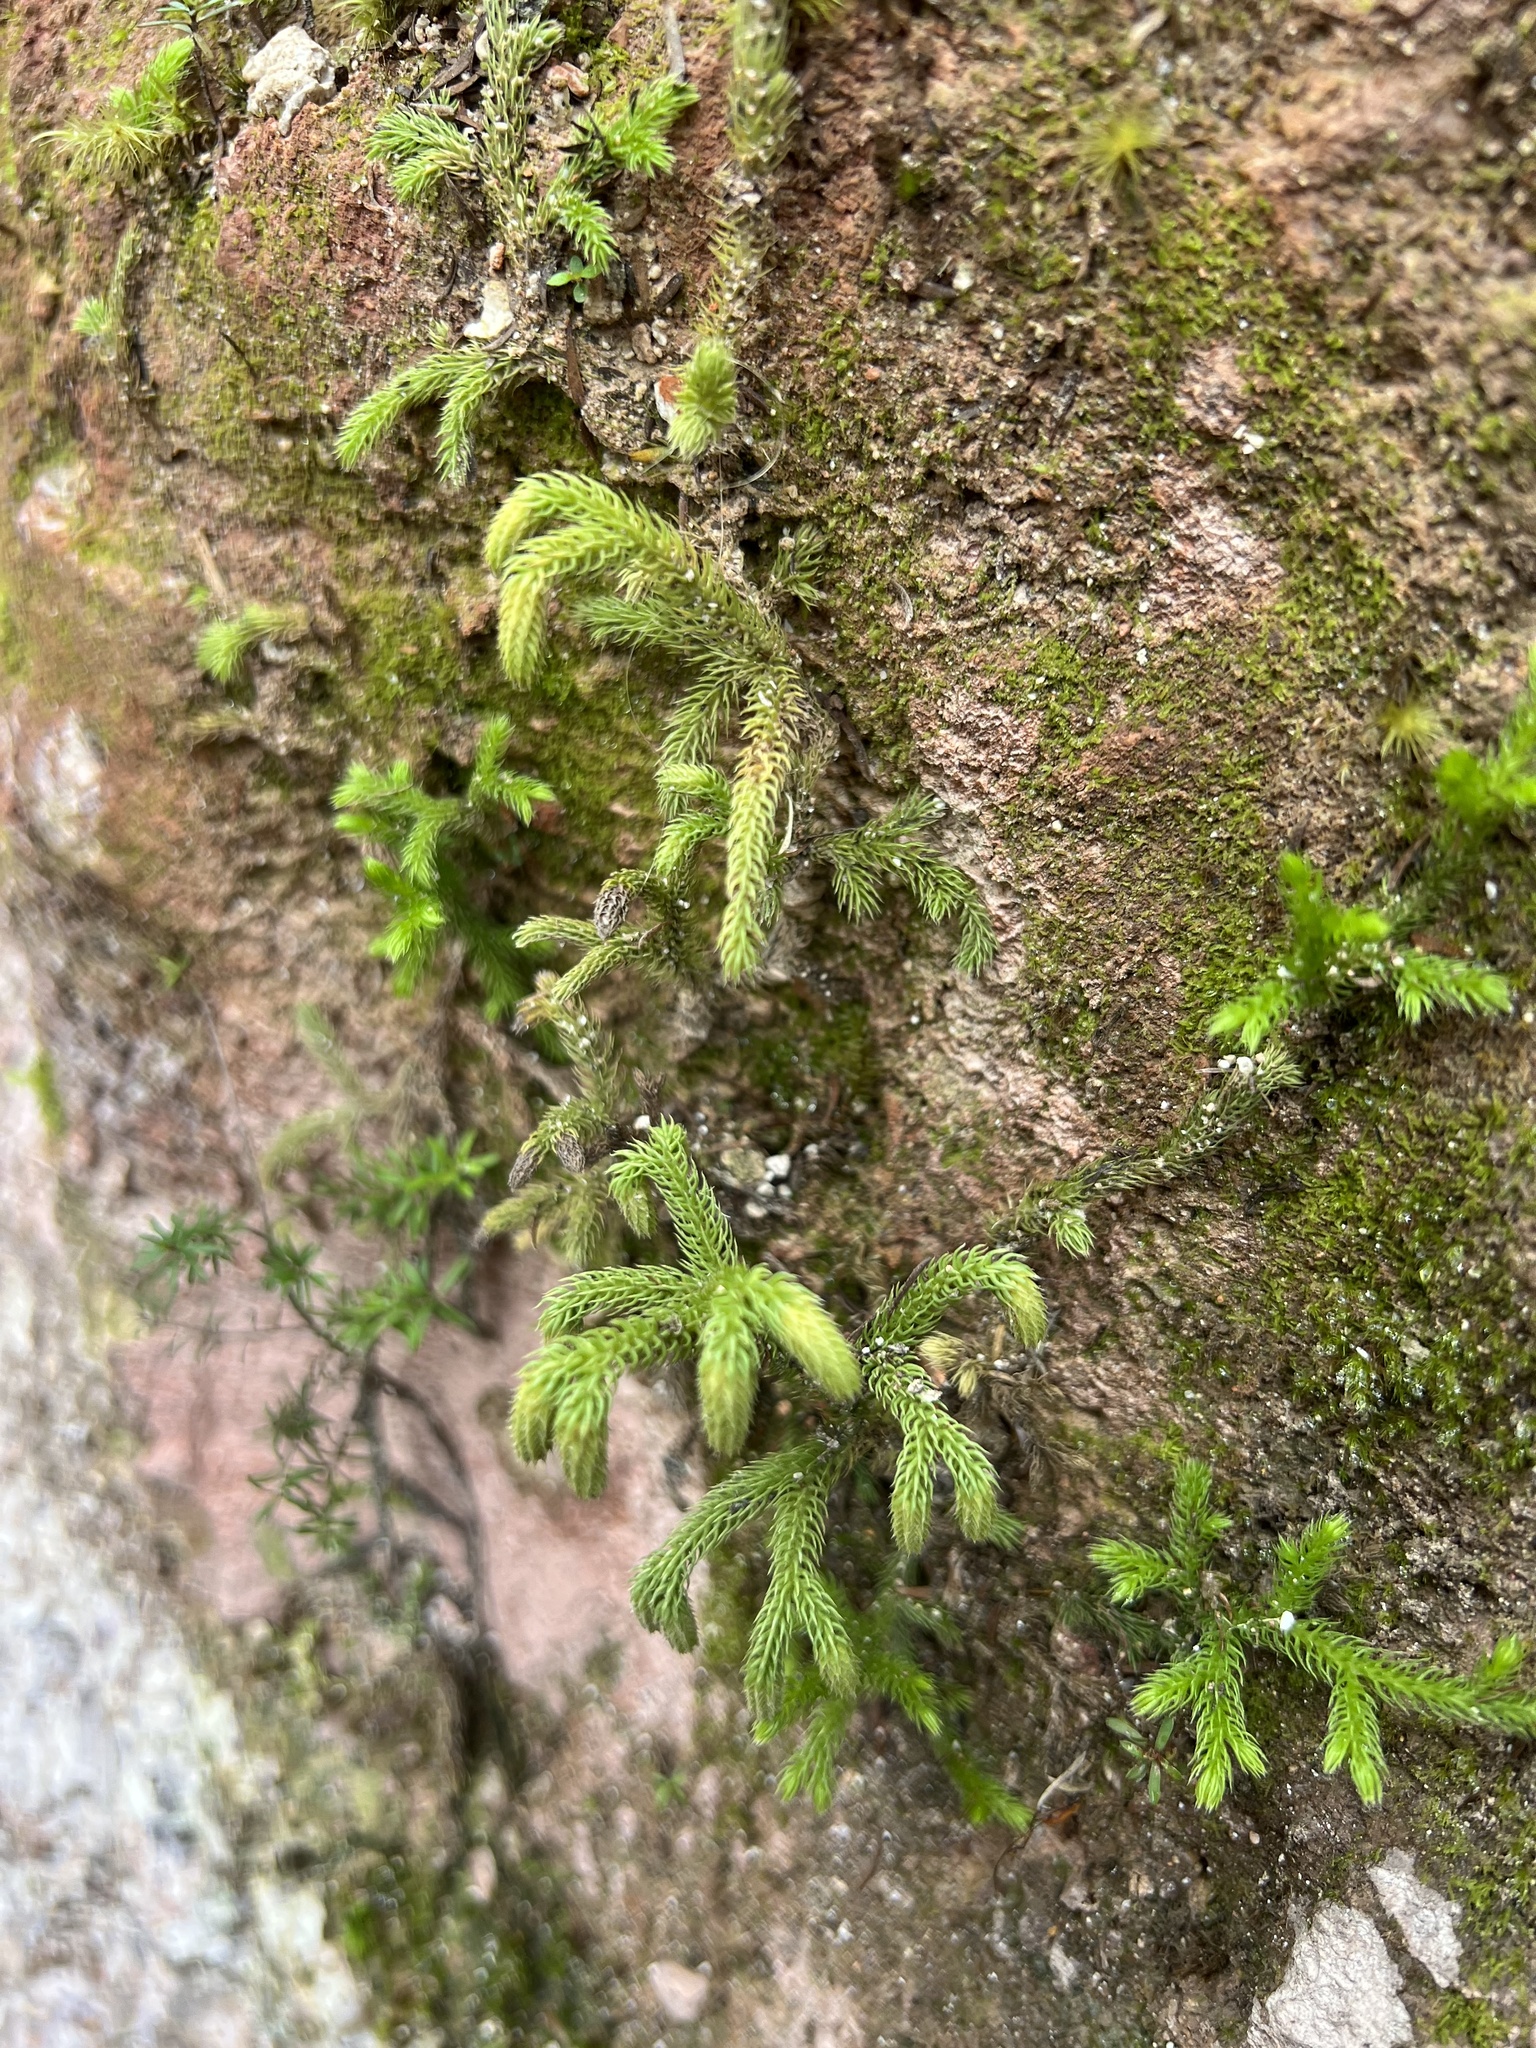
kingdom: Plantae
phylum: Tracheophyta
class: Lycopodiopsida
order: Lycopodiales
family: Lycopodiaceae
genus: Palhinhaea
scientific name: Palhinhaea cernua
